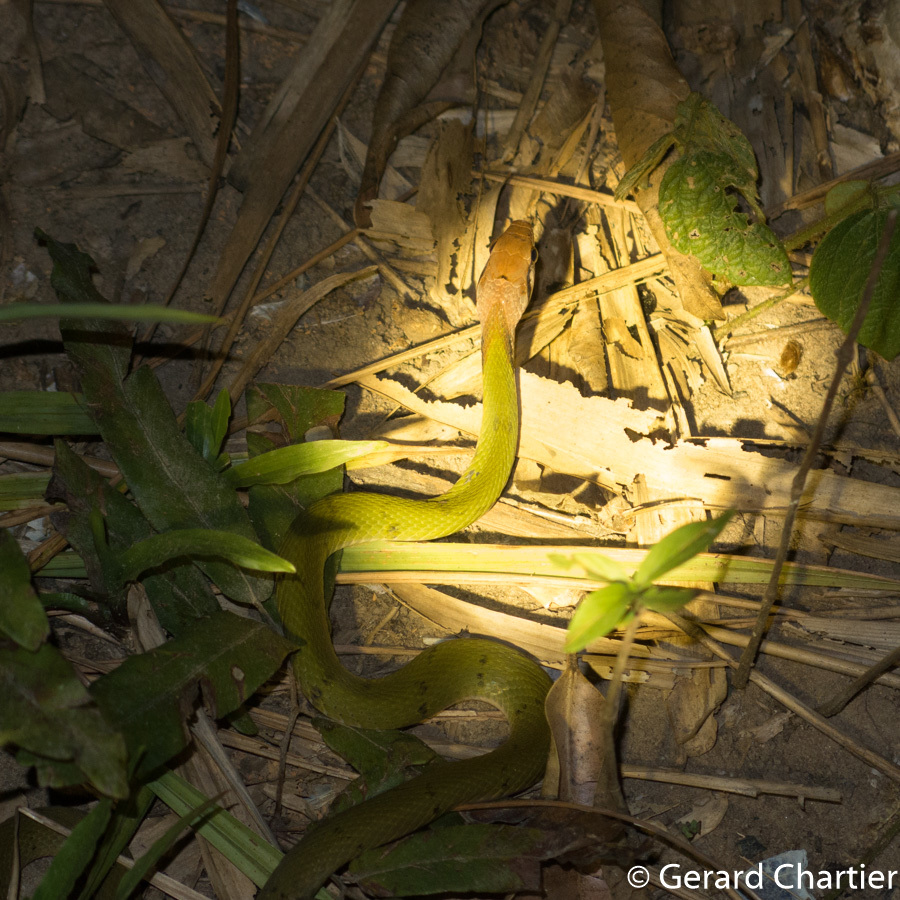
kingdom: Animalia
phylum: Chordata
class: Squamata
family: Colubridae
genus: Rhabdophis
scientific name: Rhabdophis nigrocinctus
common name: Green keelback
